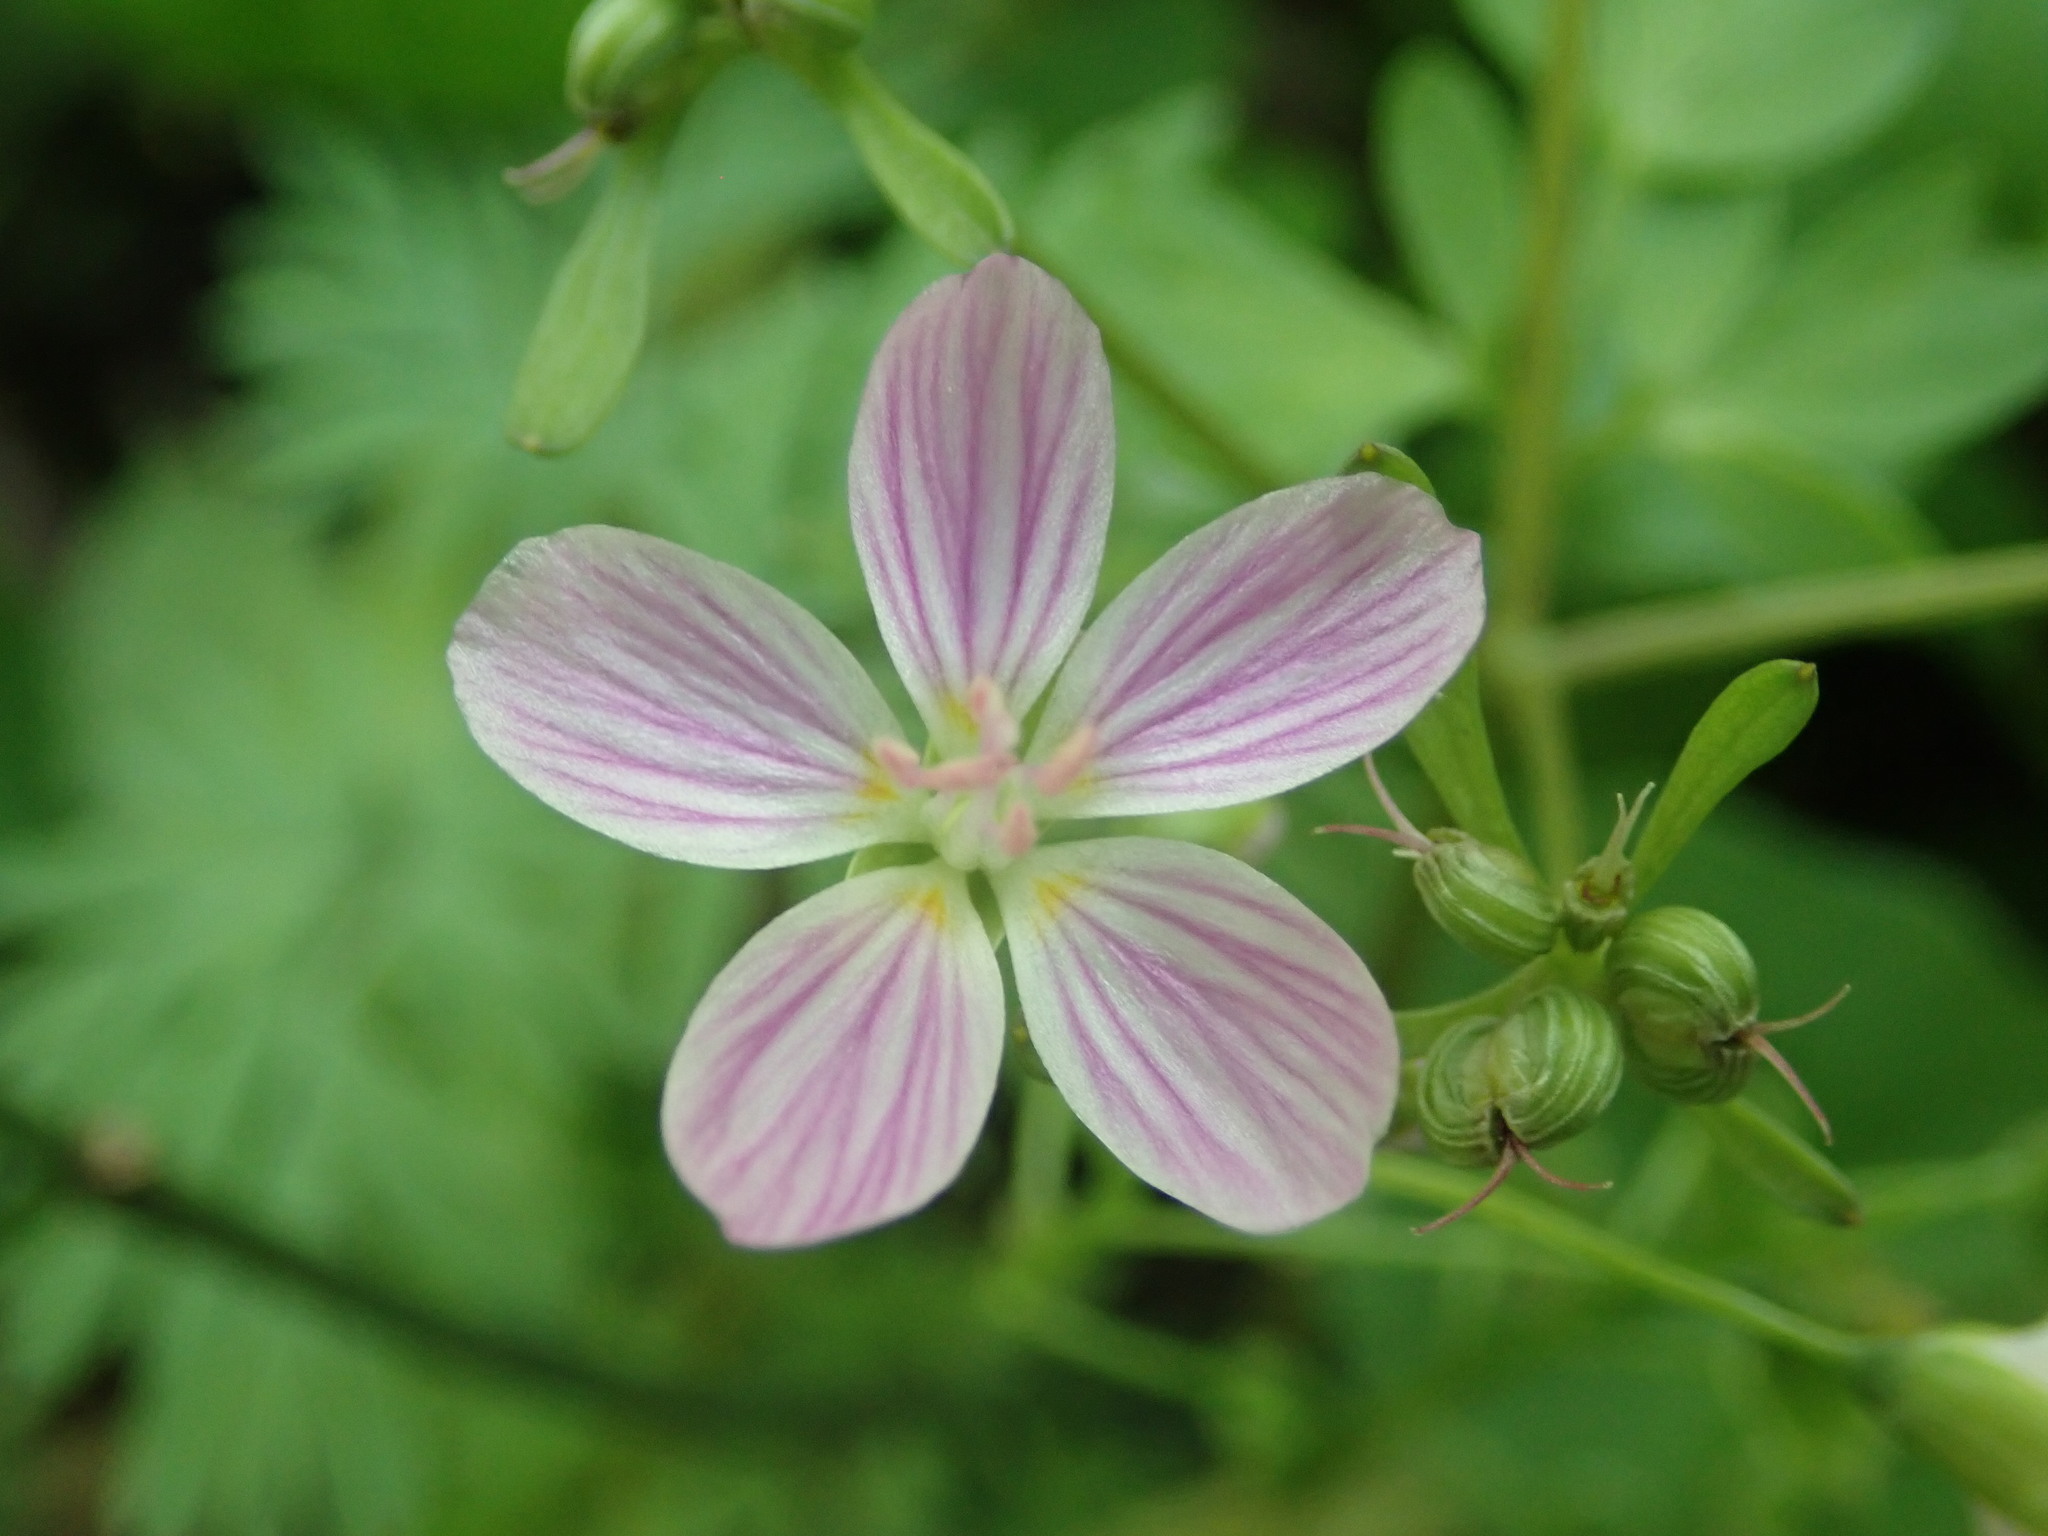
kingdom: Plantae
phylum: Tracheophyta
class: Magnoliopsida
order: Caryophyllales
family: Montiaceae
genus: Claytonia
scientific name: Claytonia virginica
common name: Virginia springbeauty
